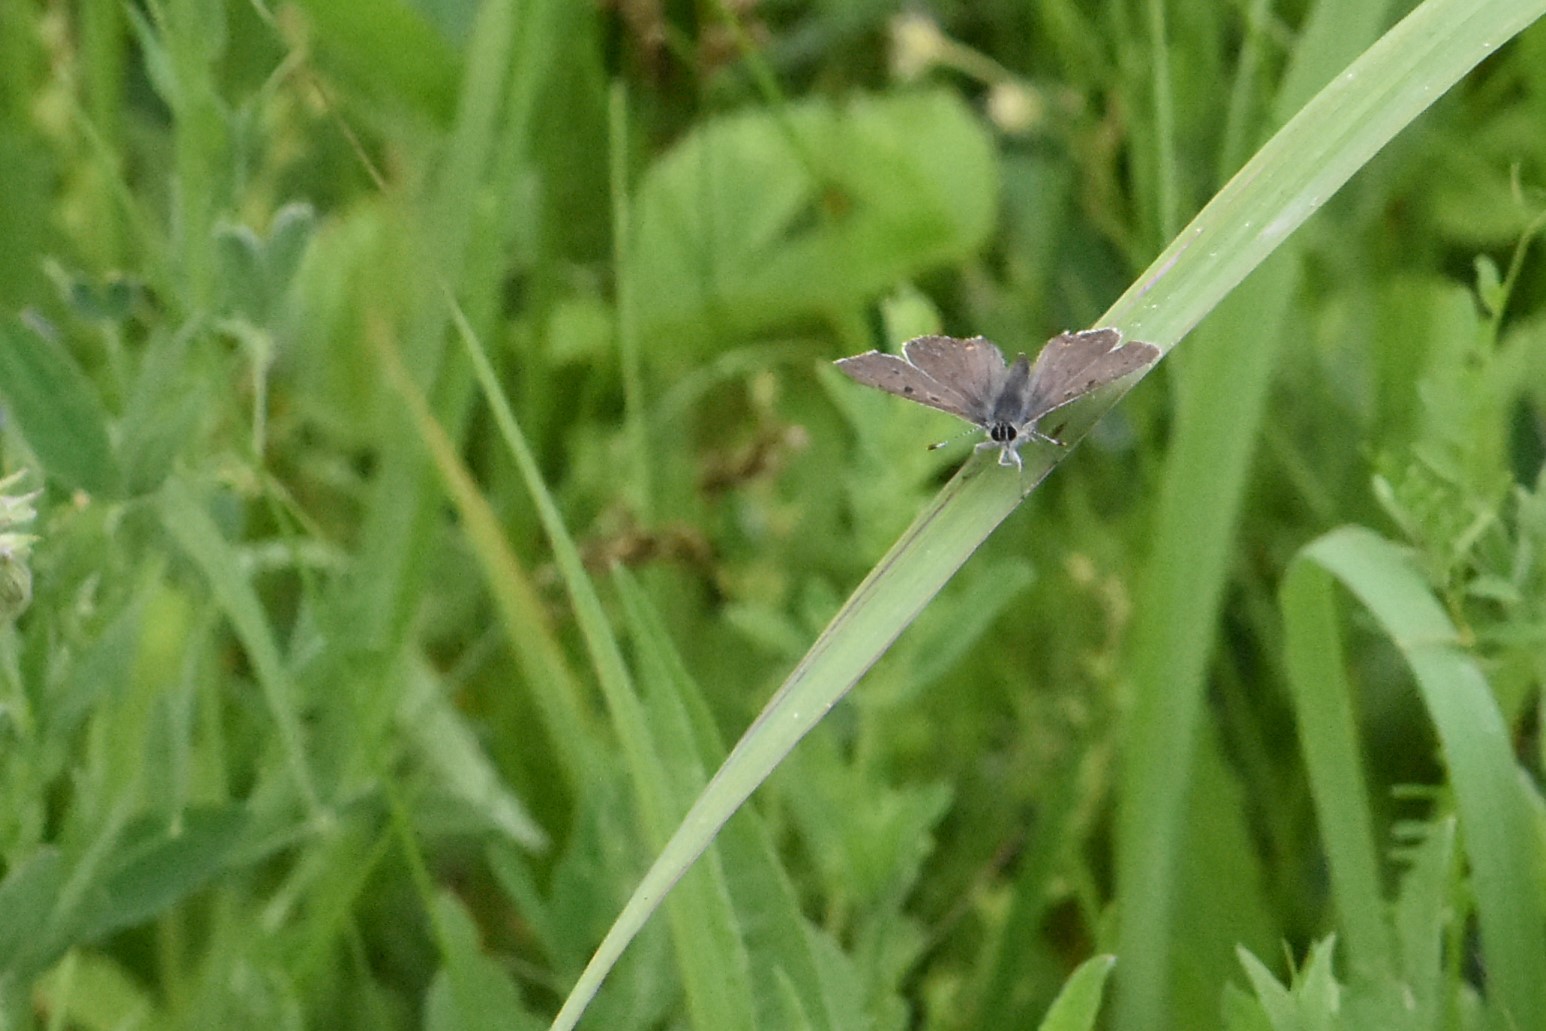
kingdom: Animalia
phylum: Arthropoda
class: Insecta
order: Lepidoptera
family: Lycaenidae
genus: Loweia
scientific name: Loweia tityrus
